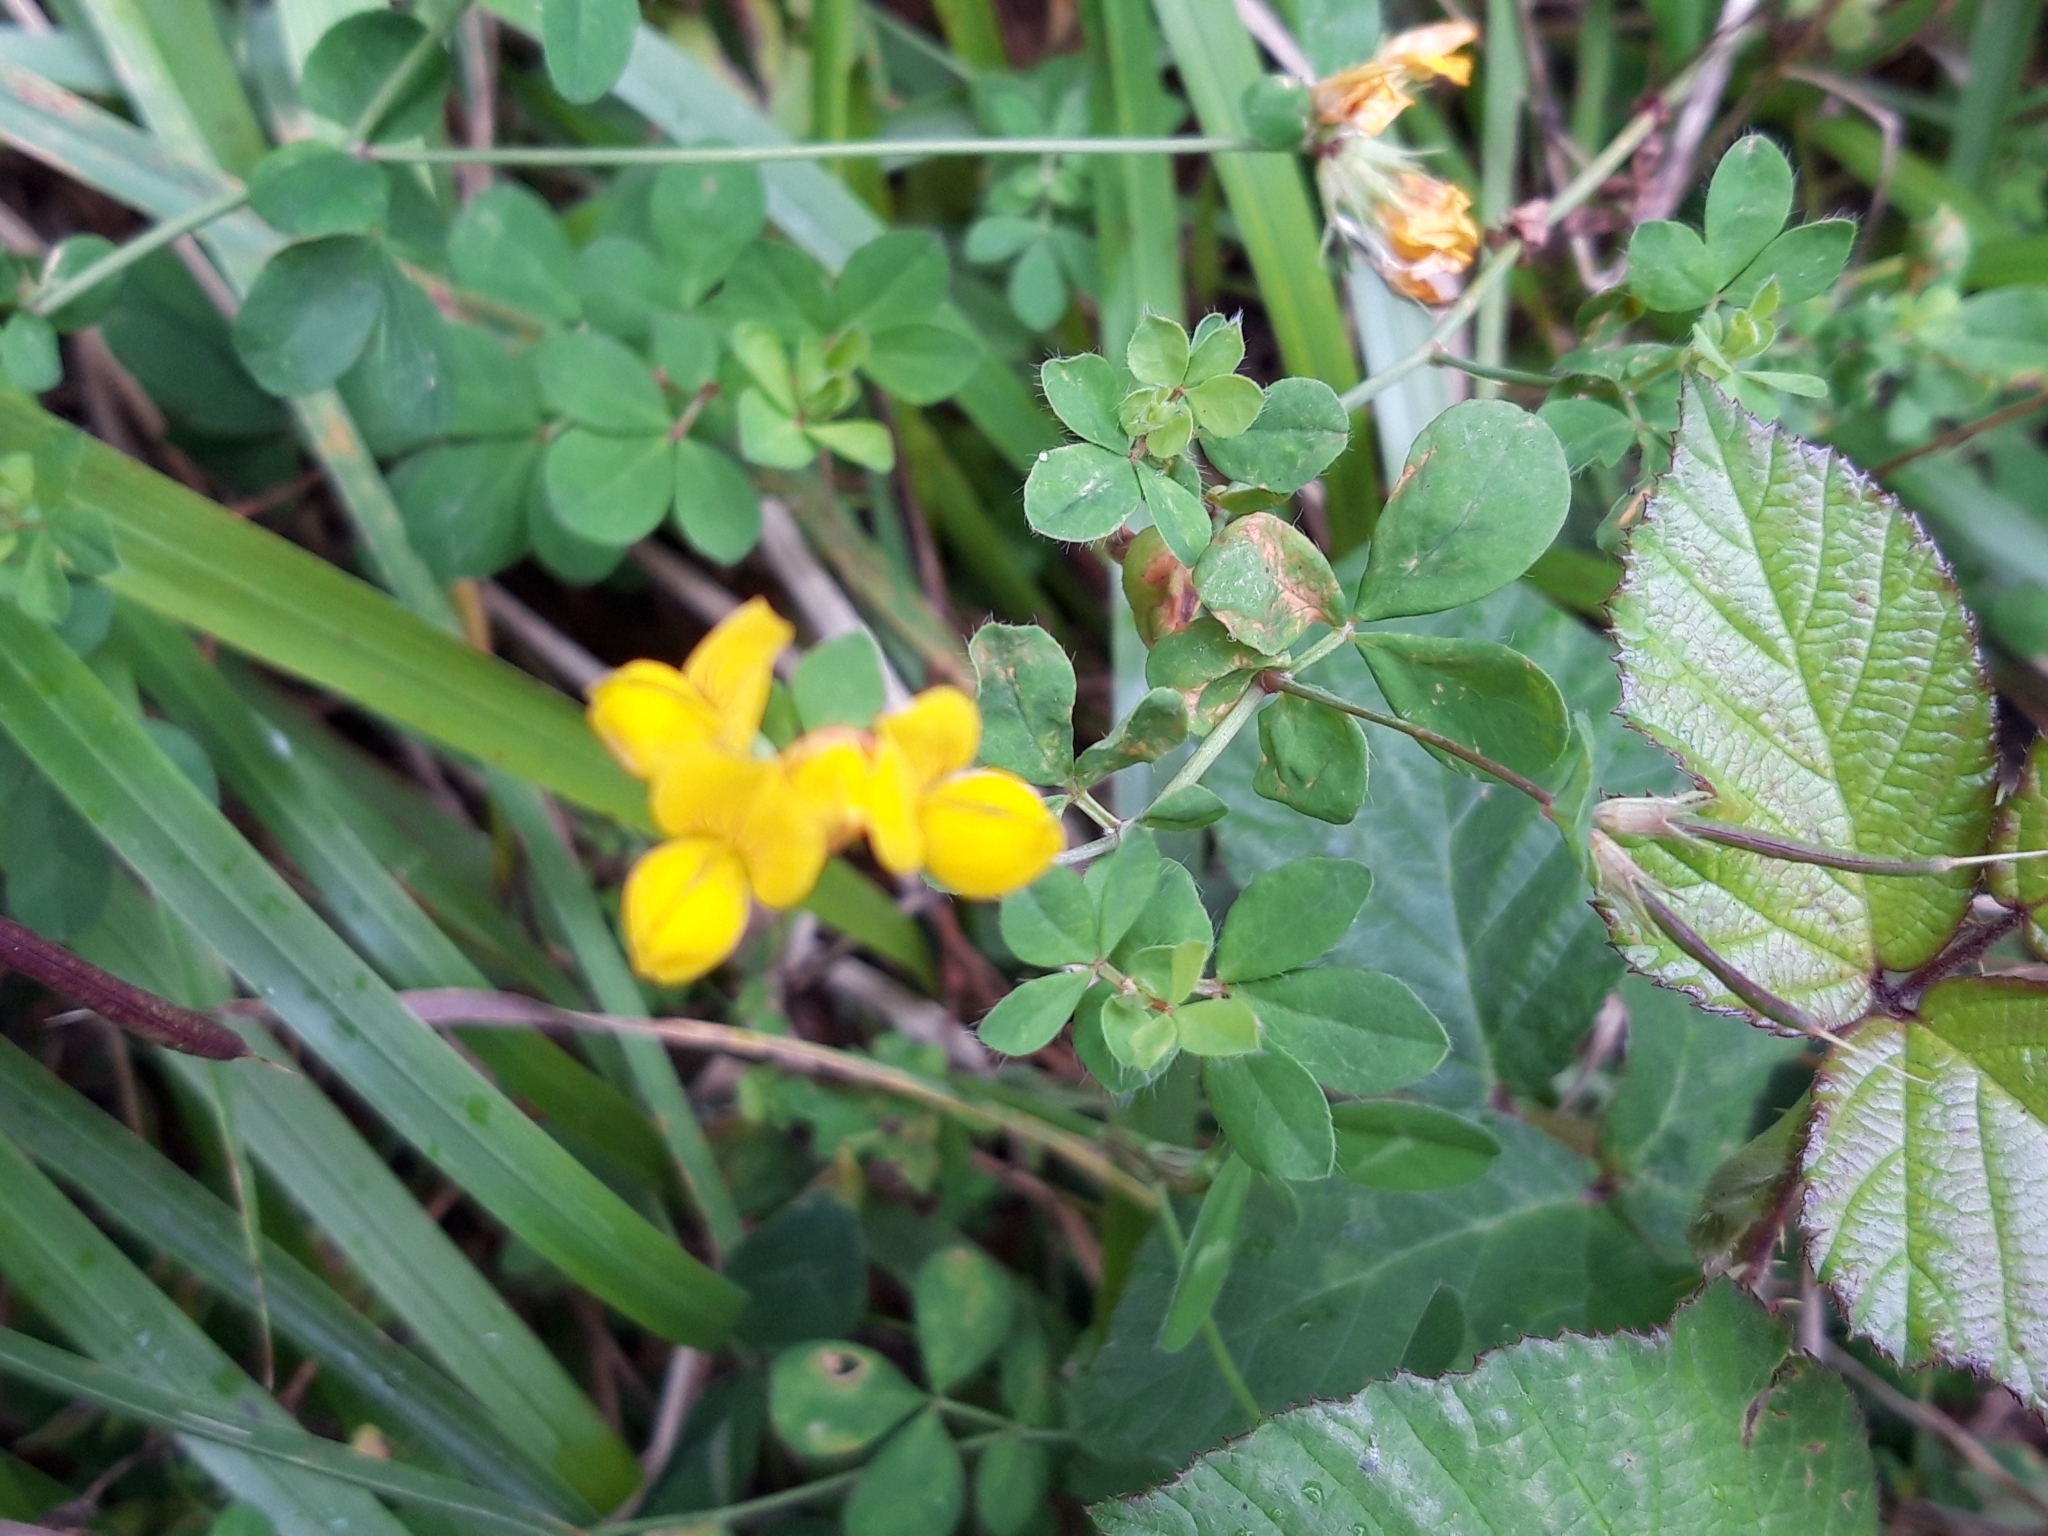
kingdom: Plantae
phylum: Tracheophyta
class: Magnoliopsida
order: Fabales
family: Fabaceae
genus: Lotus
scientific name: Lotus corniculatus
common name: Common bird's-foot-trefoil
